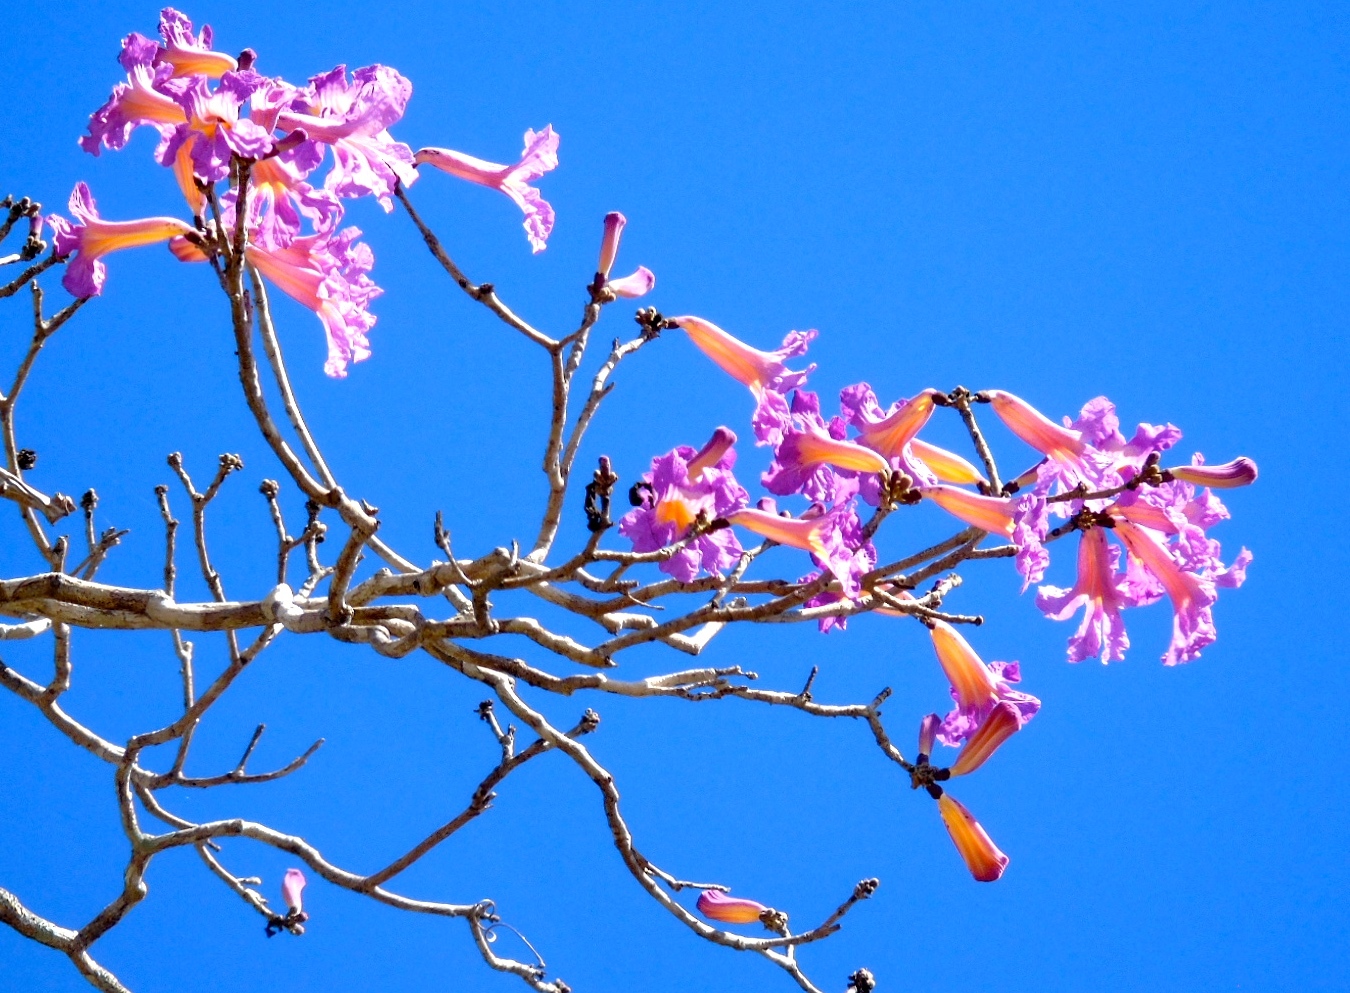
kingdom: Plantae
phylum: Tracheophyta
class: Magnoliopsida
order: Lamiales
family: Bignoniaceae
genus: Handroanthus
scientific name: Handroanthus impetiginosum
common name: Pink trumpet tree
